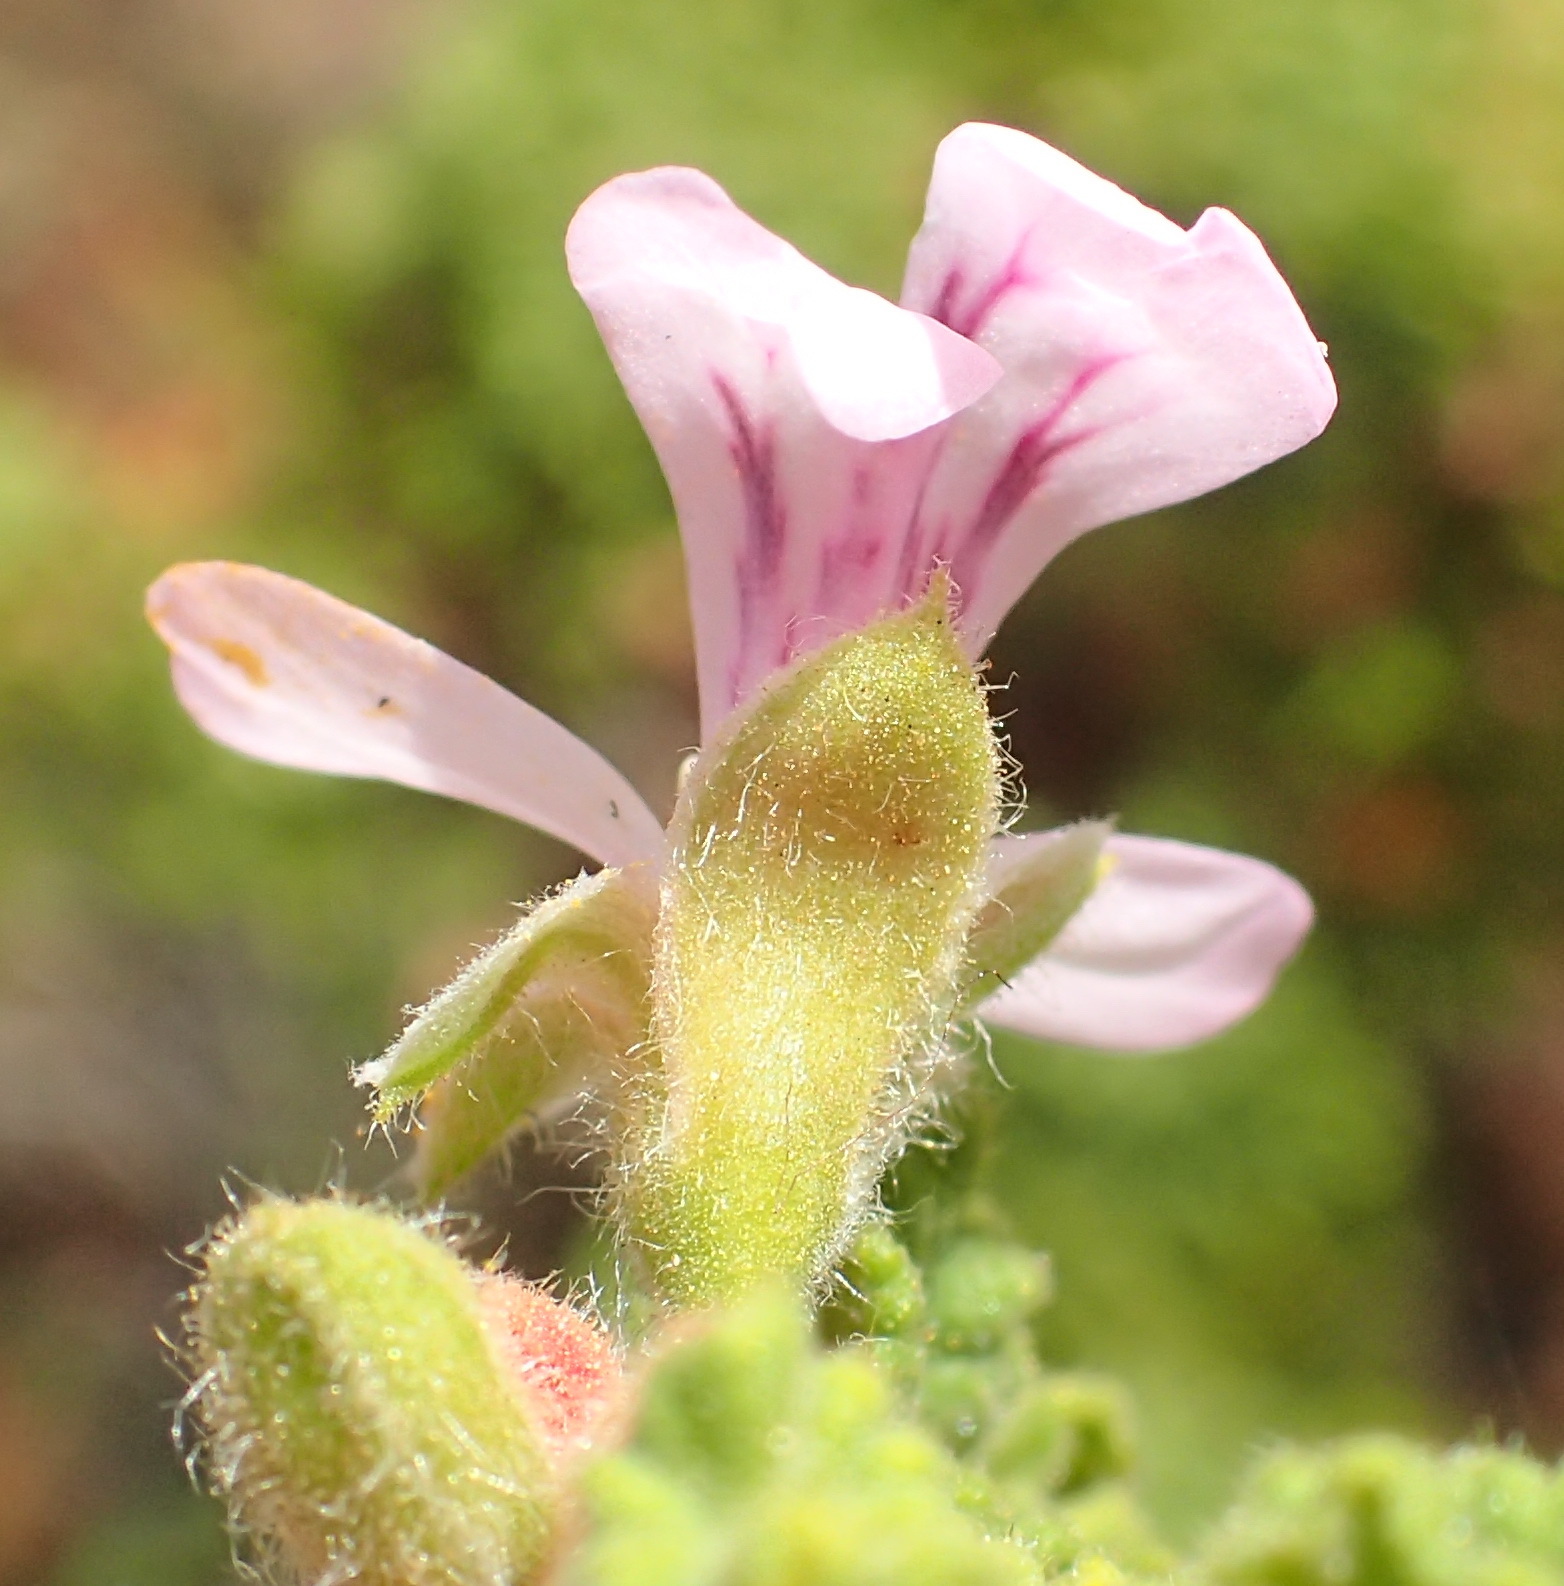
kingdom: Plantae
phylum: Tracheophyta
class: Magnoliopsida
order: Geraniales
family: Geraniaceae
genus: Pelargonium
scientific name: Pelargonium panduriforme
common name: Oakleaf garden geranium
